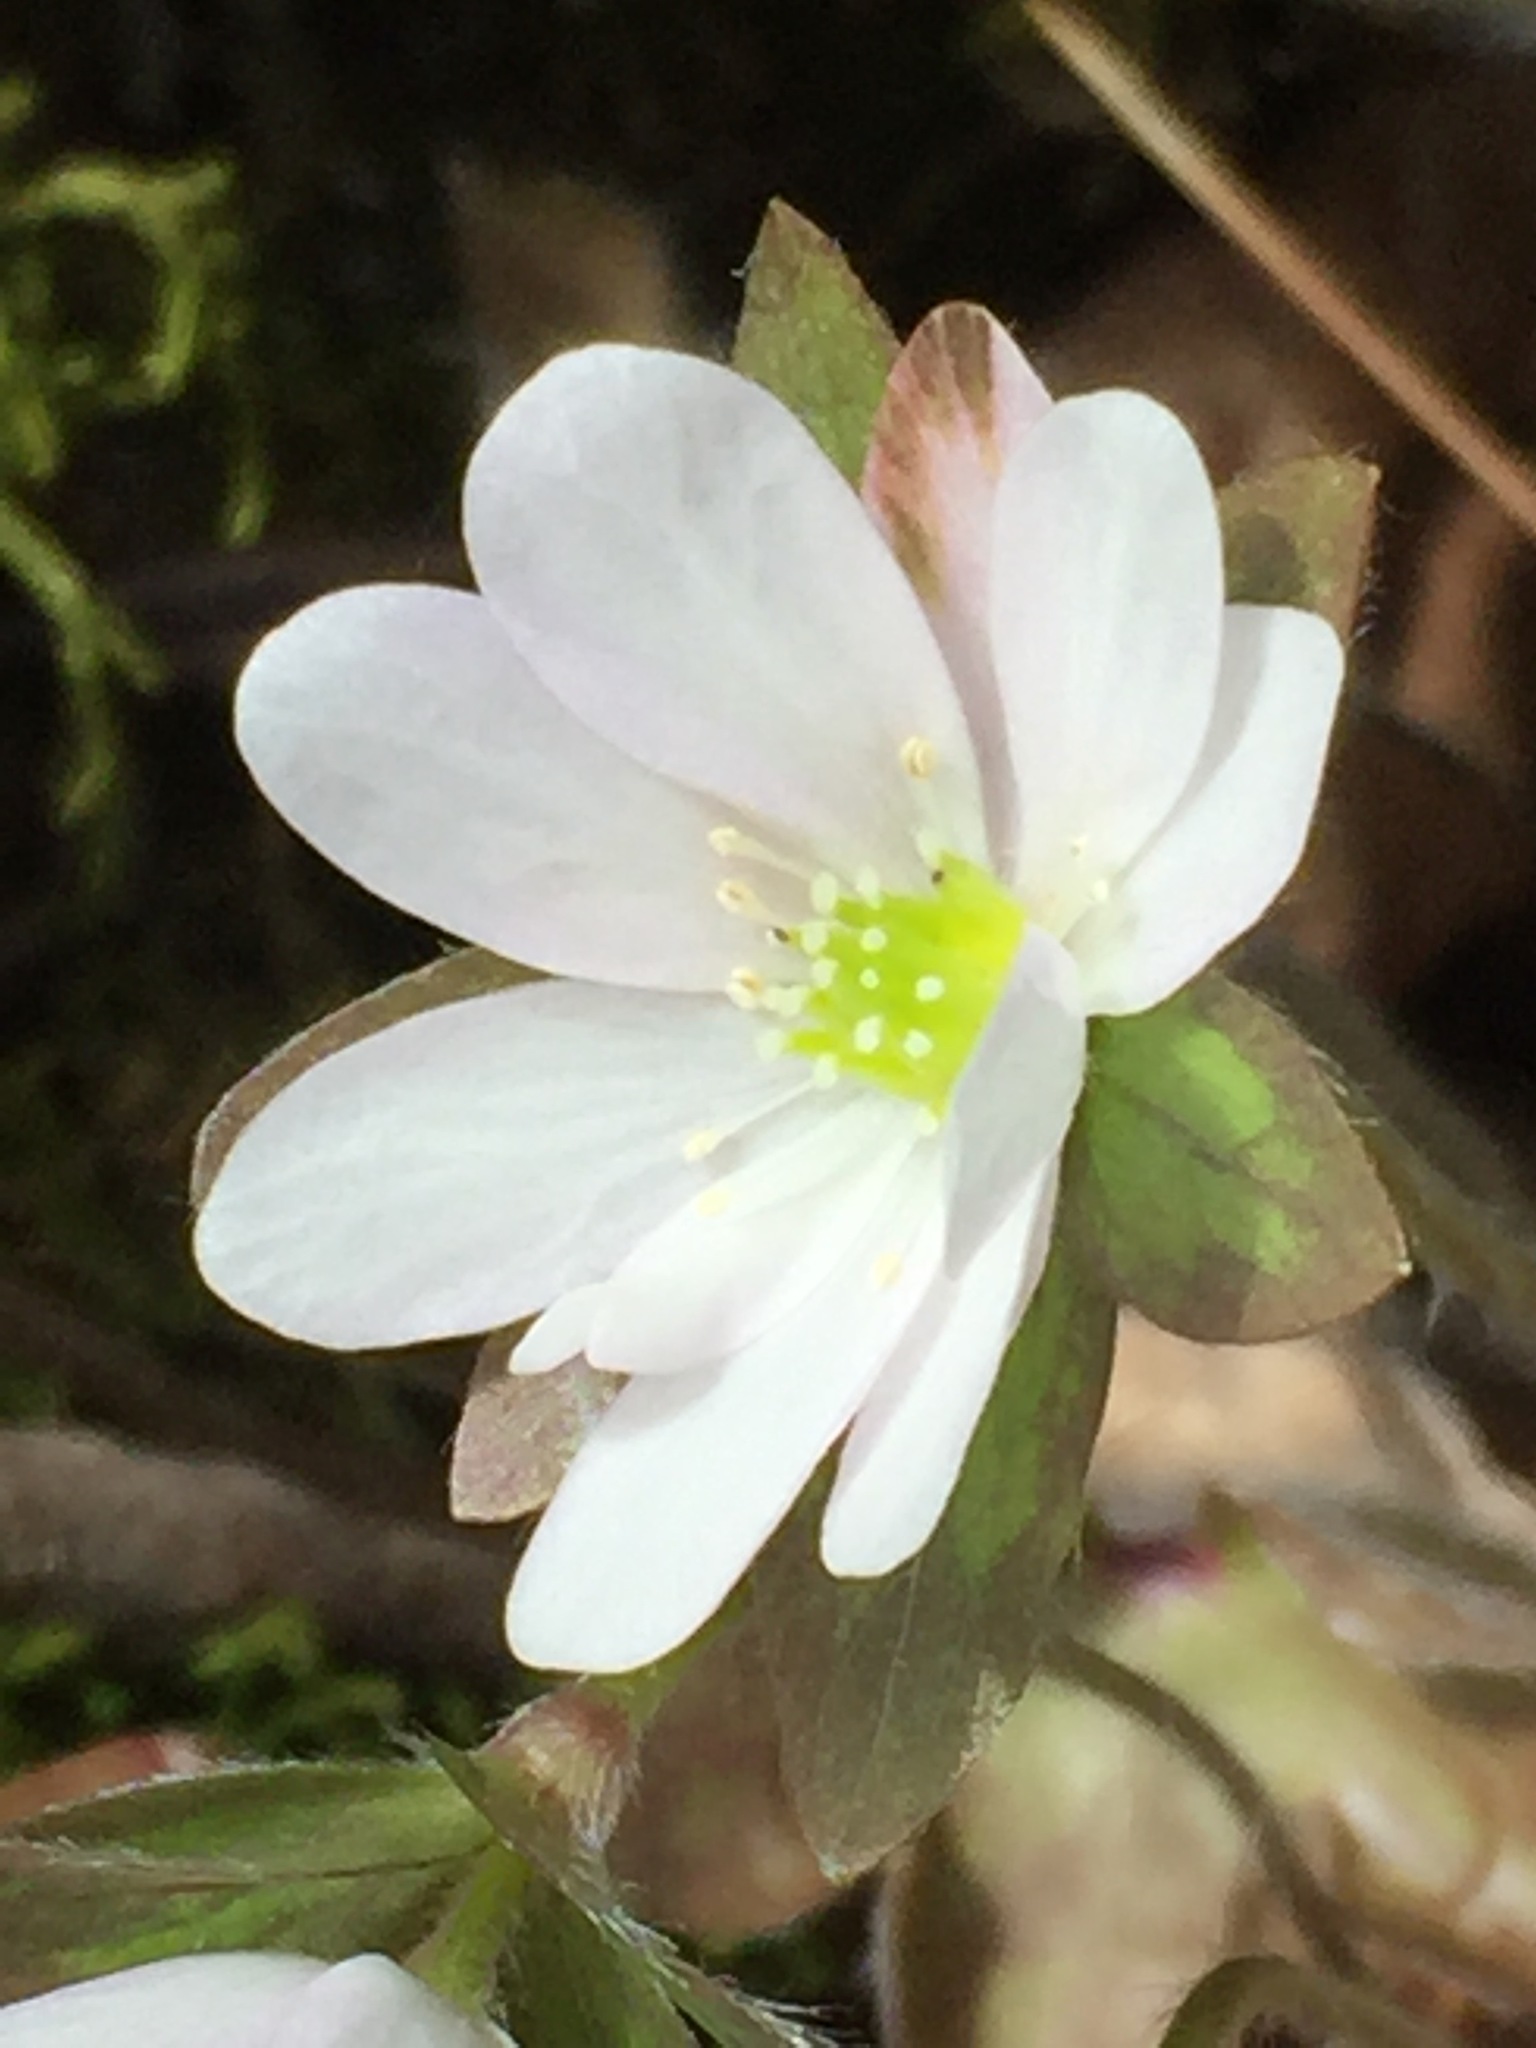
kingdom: Plantae
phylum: Tracheophyta
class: Magnoliopsida
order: Ranunculales
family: Ranunculaceae
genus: Hepatica
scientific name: Hepatica acutiloba
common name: Sharp-lobed hepatica
